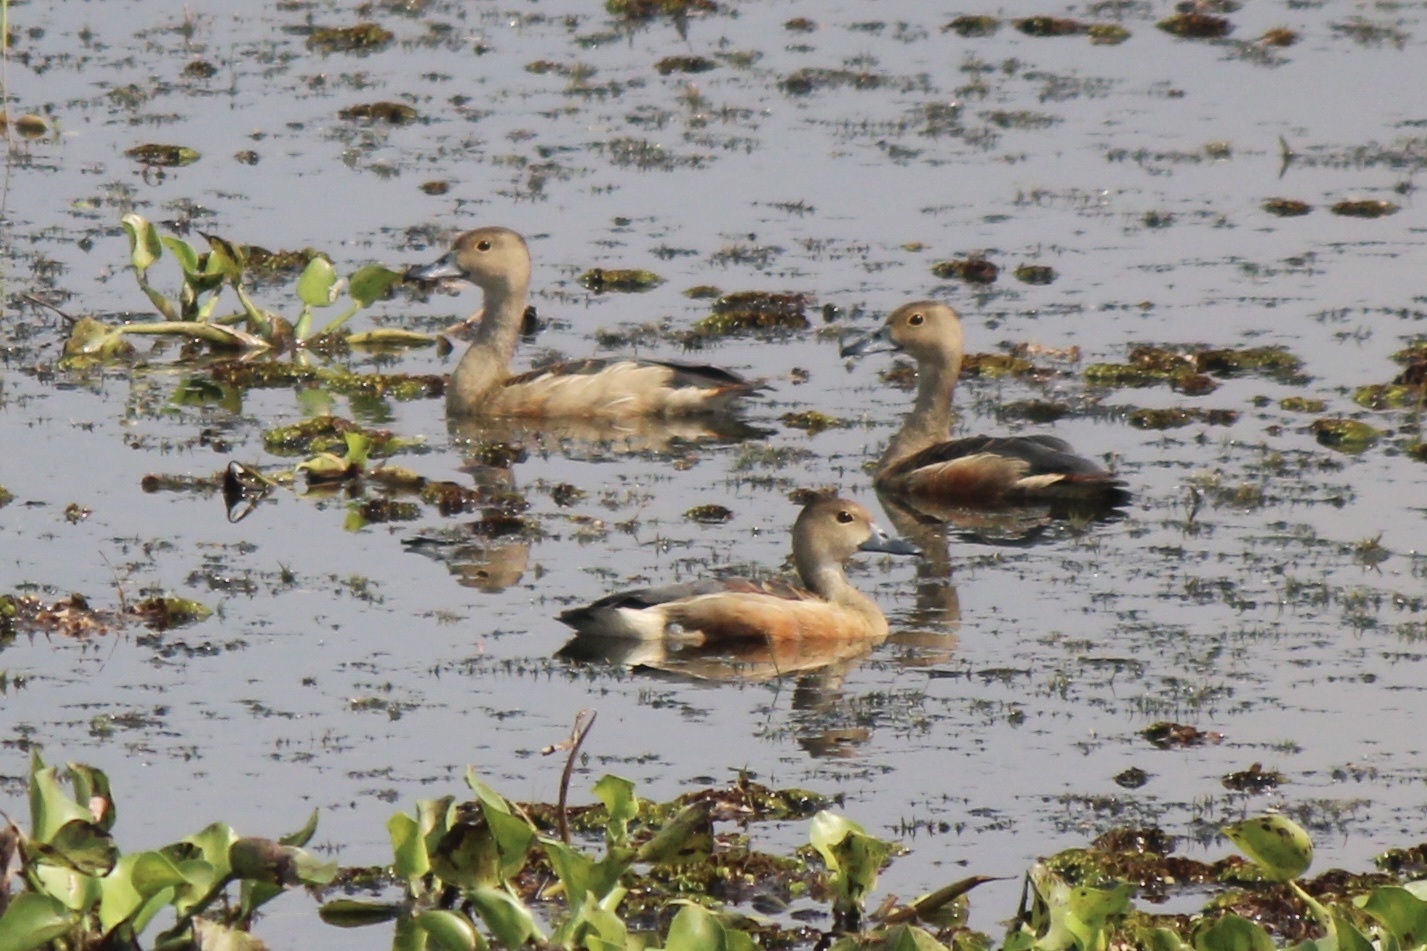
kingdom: Animalia
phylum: Chordata
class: Aves
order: Anseriformes
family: Anatidae
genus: Dendrocygna
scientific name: Dendrocygna javanica
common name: Lesser whistling-duck
